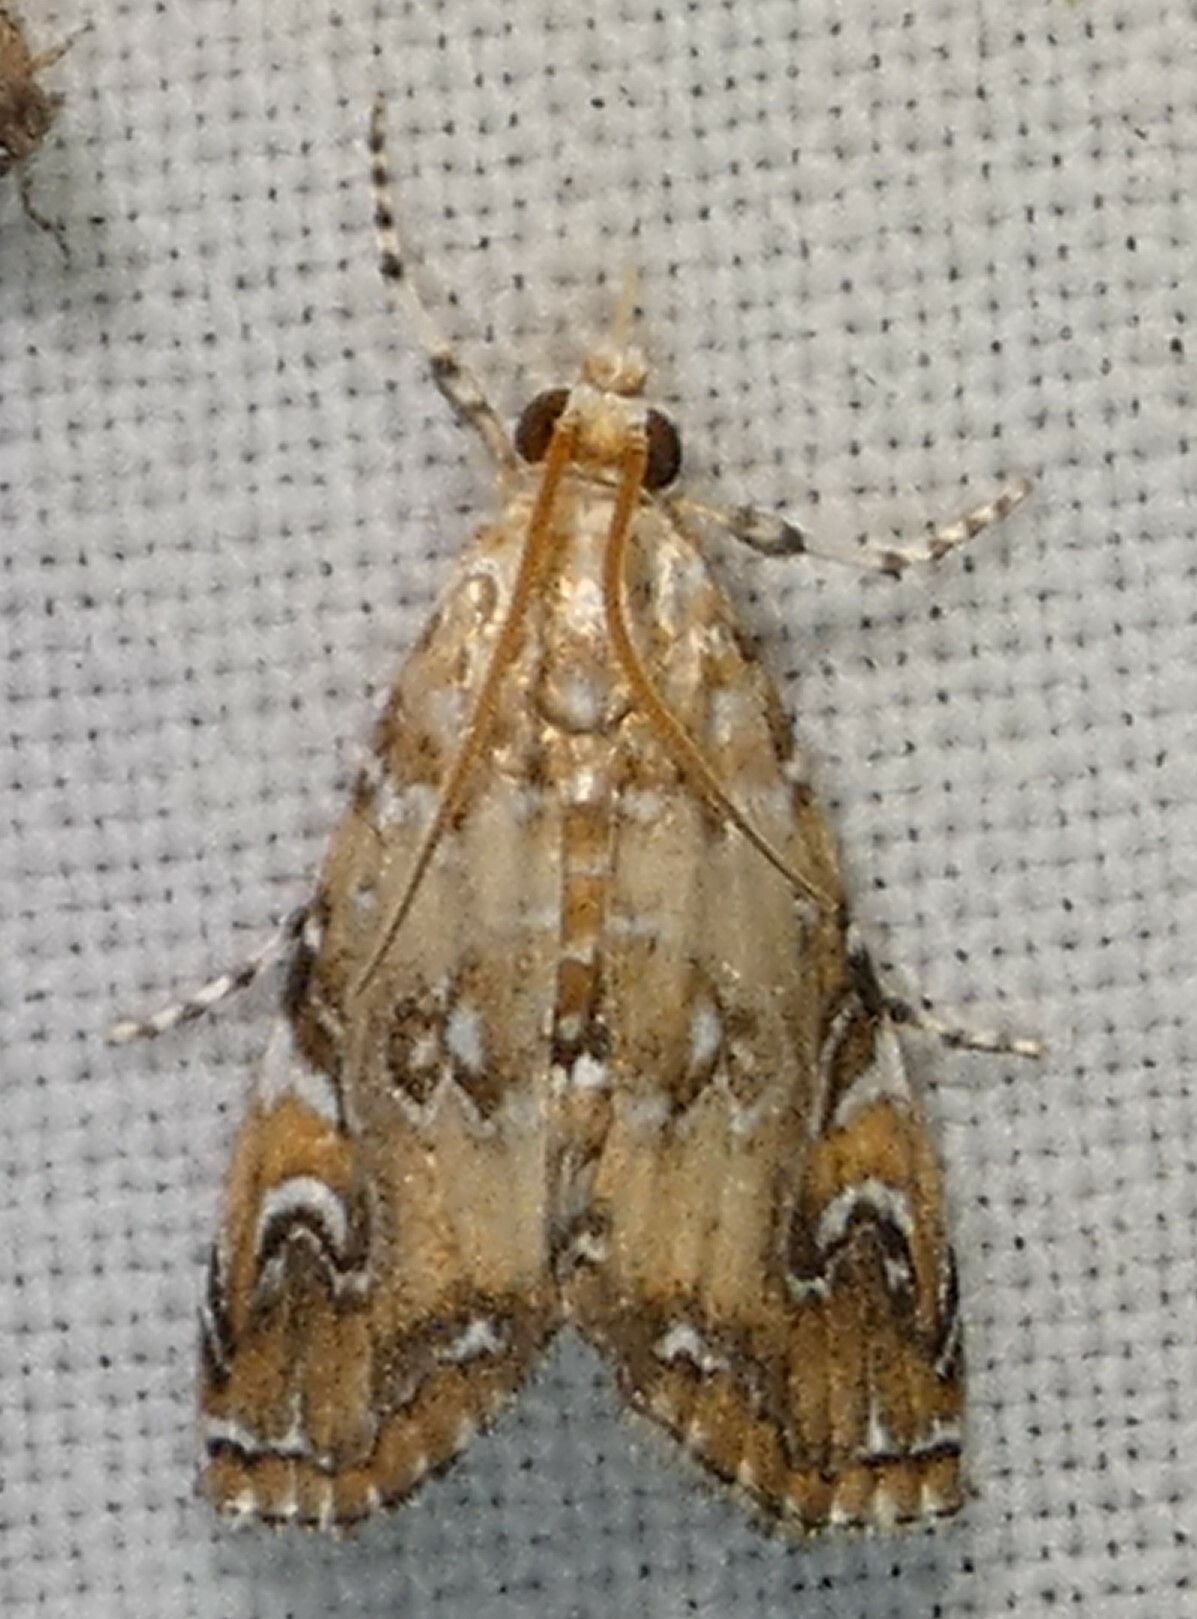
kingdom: Animalia
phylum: Arthropoda
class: Insecta
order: Lepidoptera
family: Crambidae
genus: Elophila
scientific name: Elophila gyralis
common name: Waterlily borer moth
